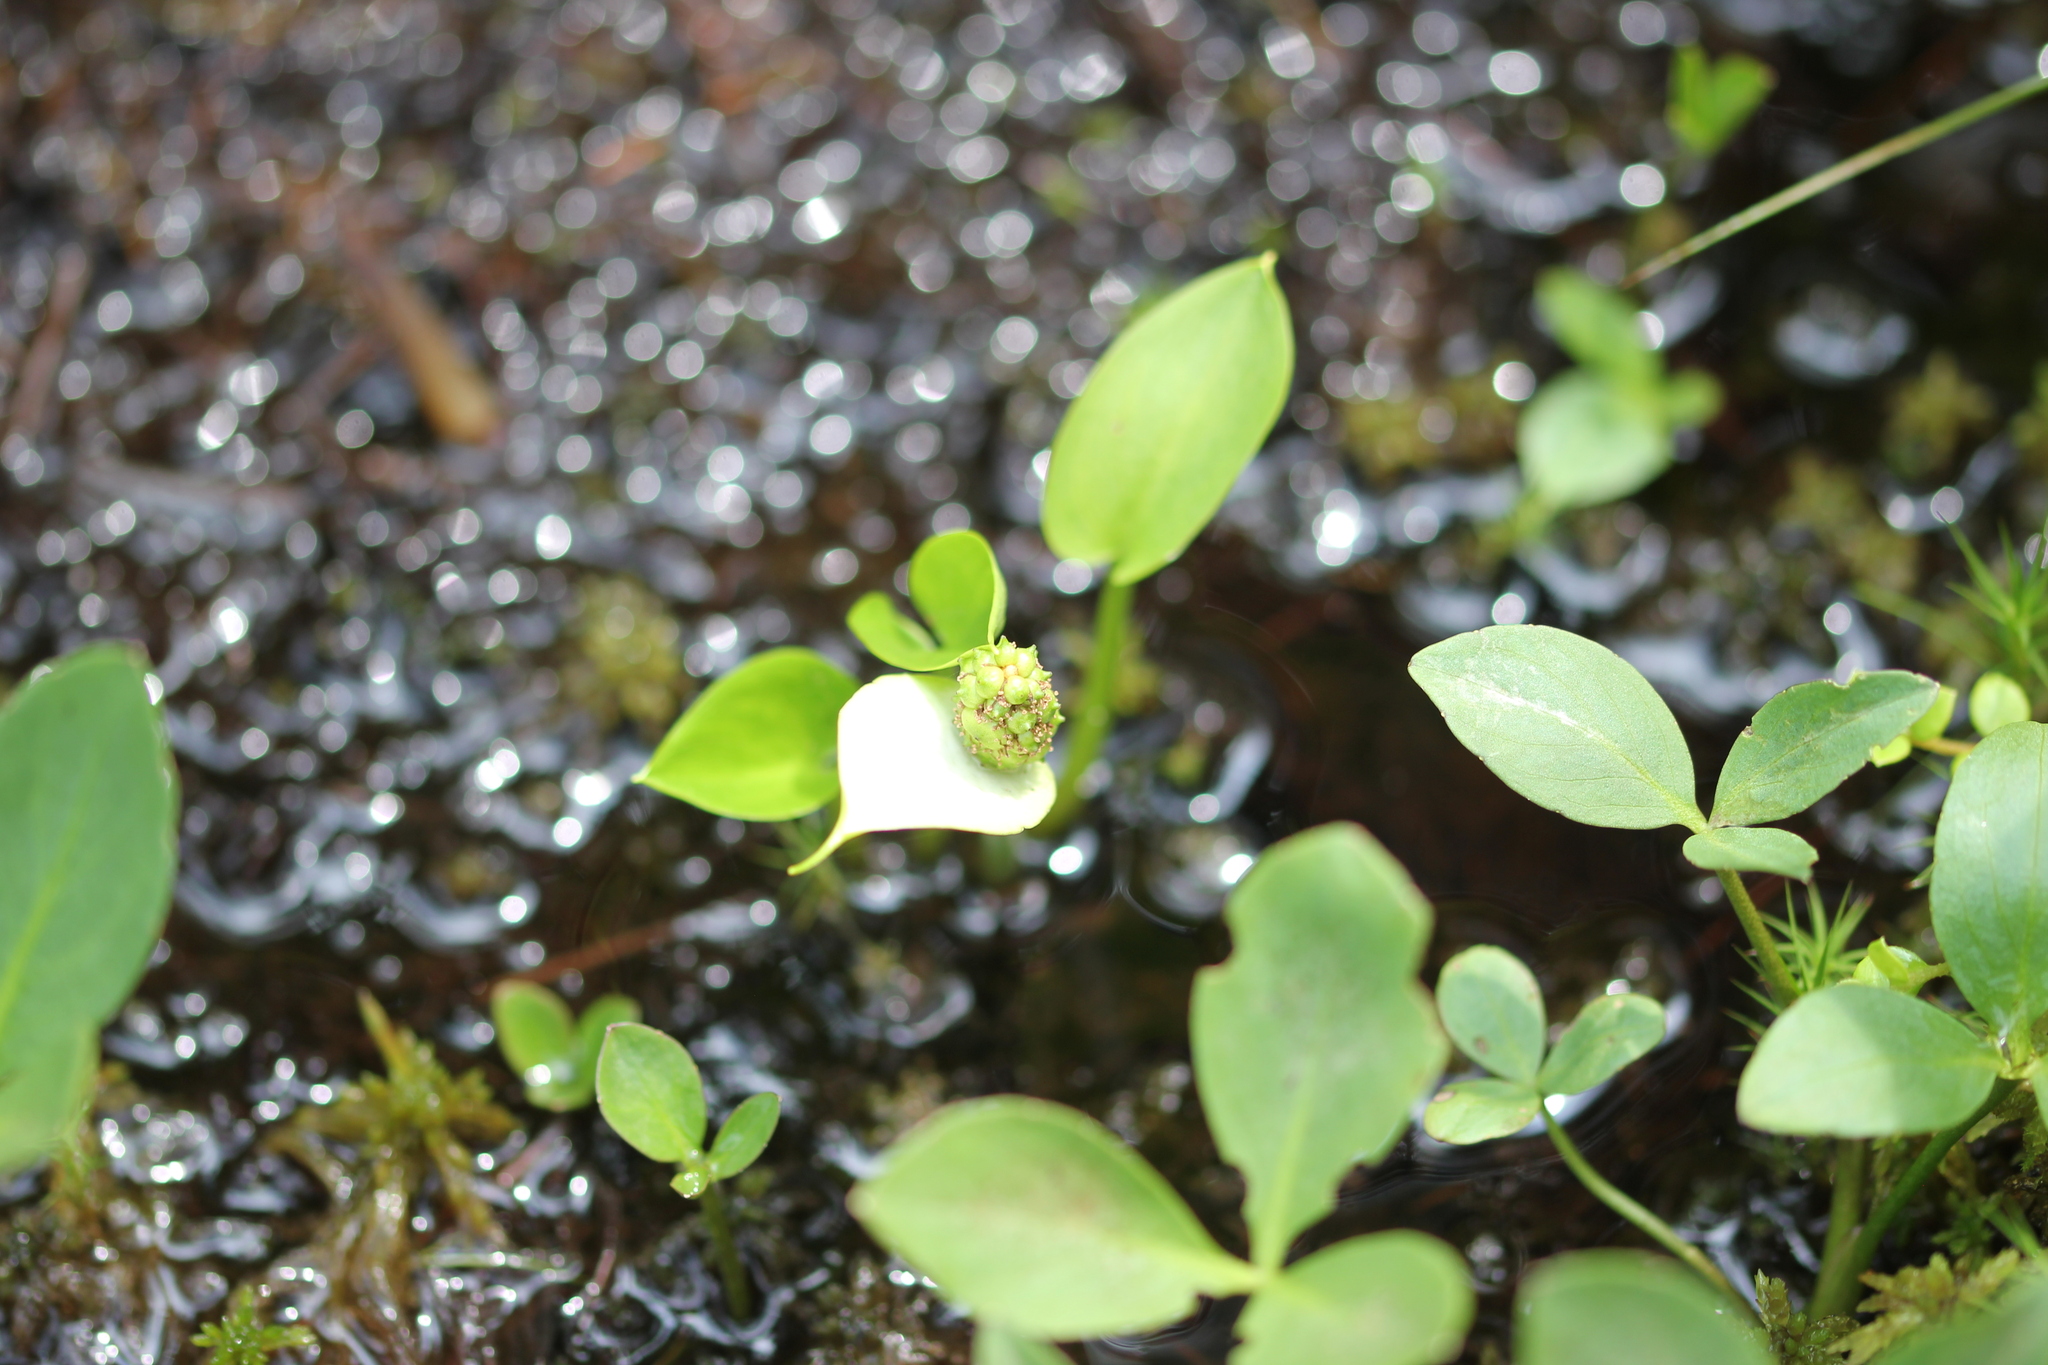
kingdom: Plantae
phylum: Tracheophyta
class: Liliopsida
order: Alismatales
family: Araceae
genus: Calla
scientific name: Calla palustris
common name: Bog arum
